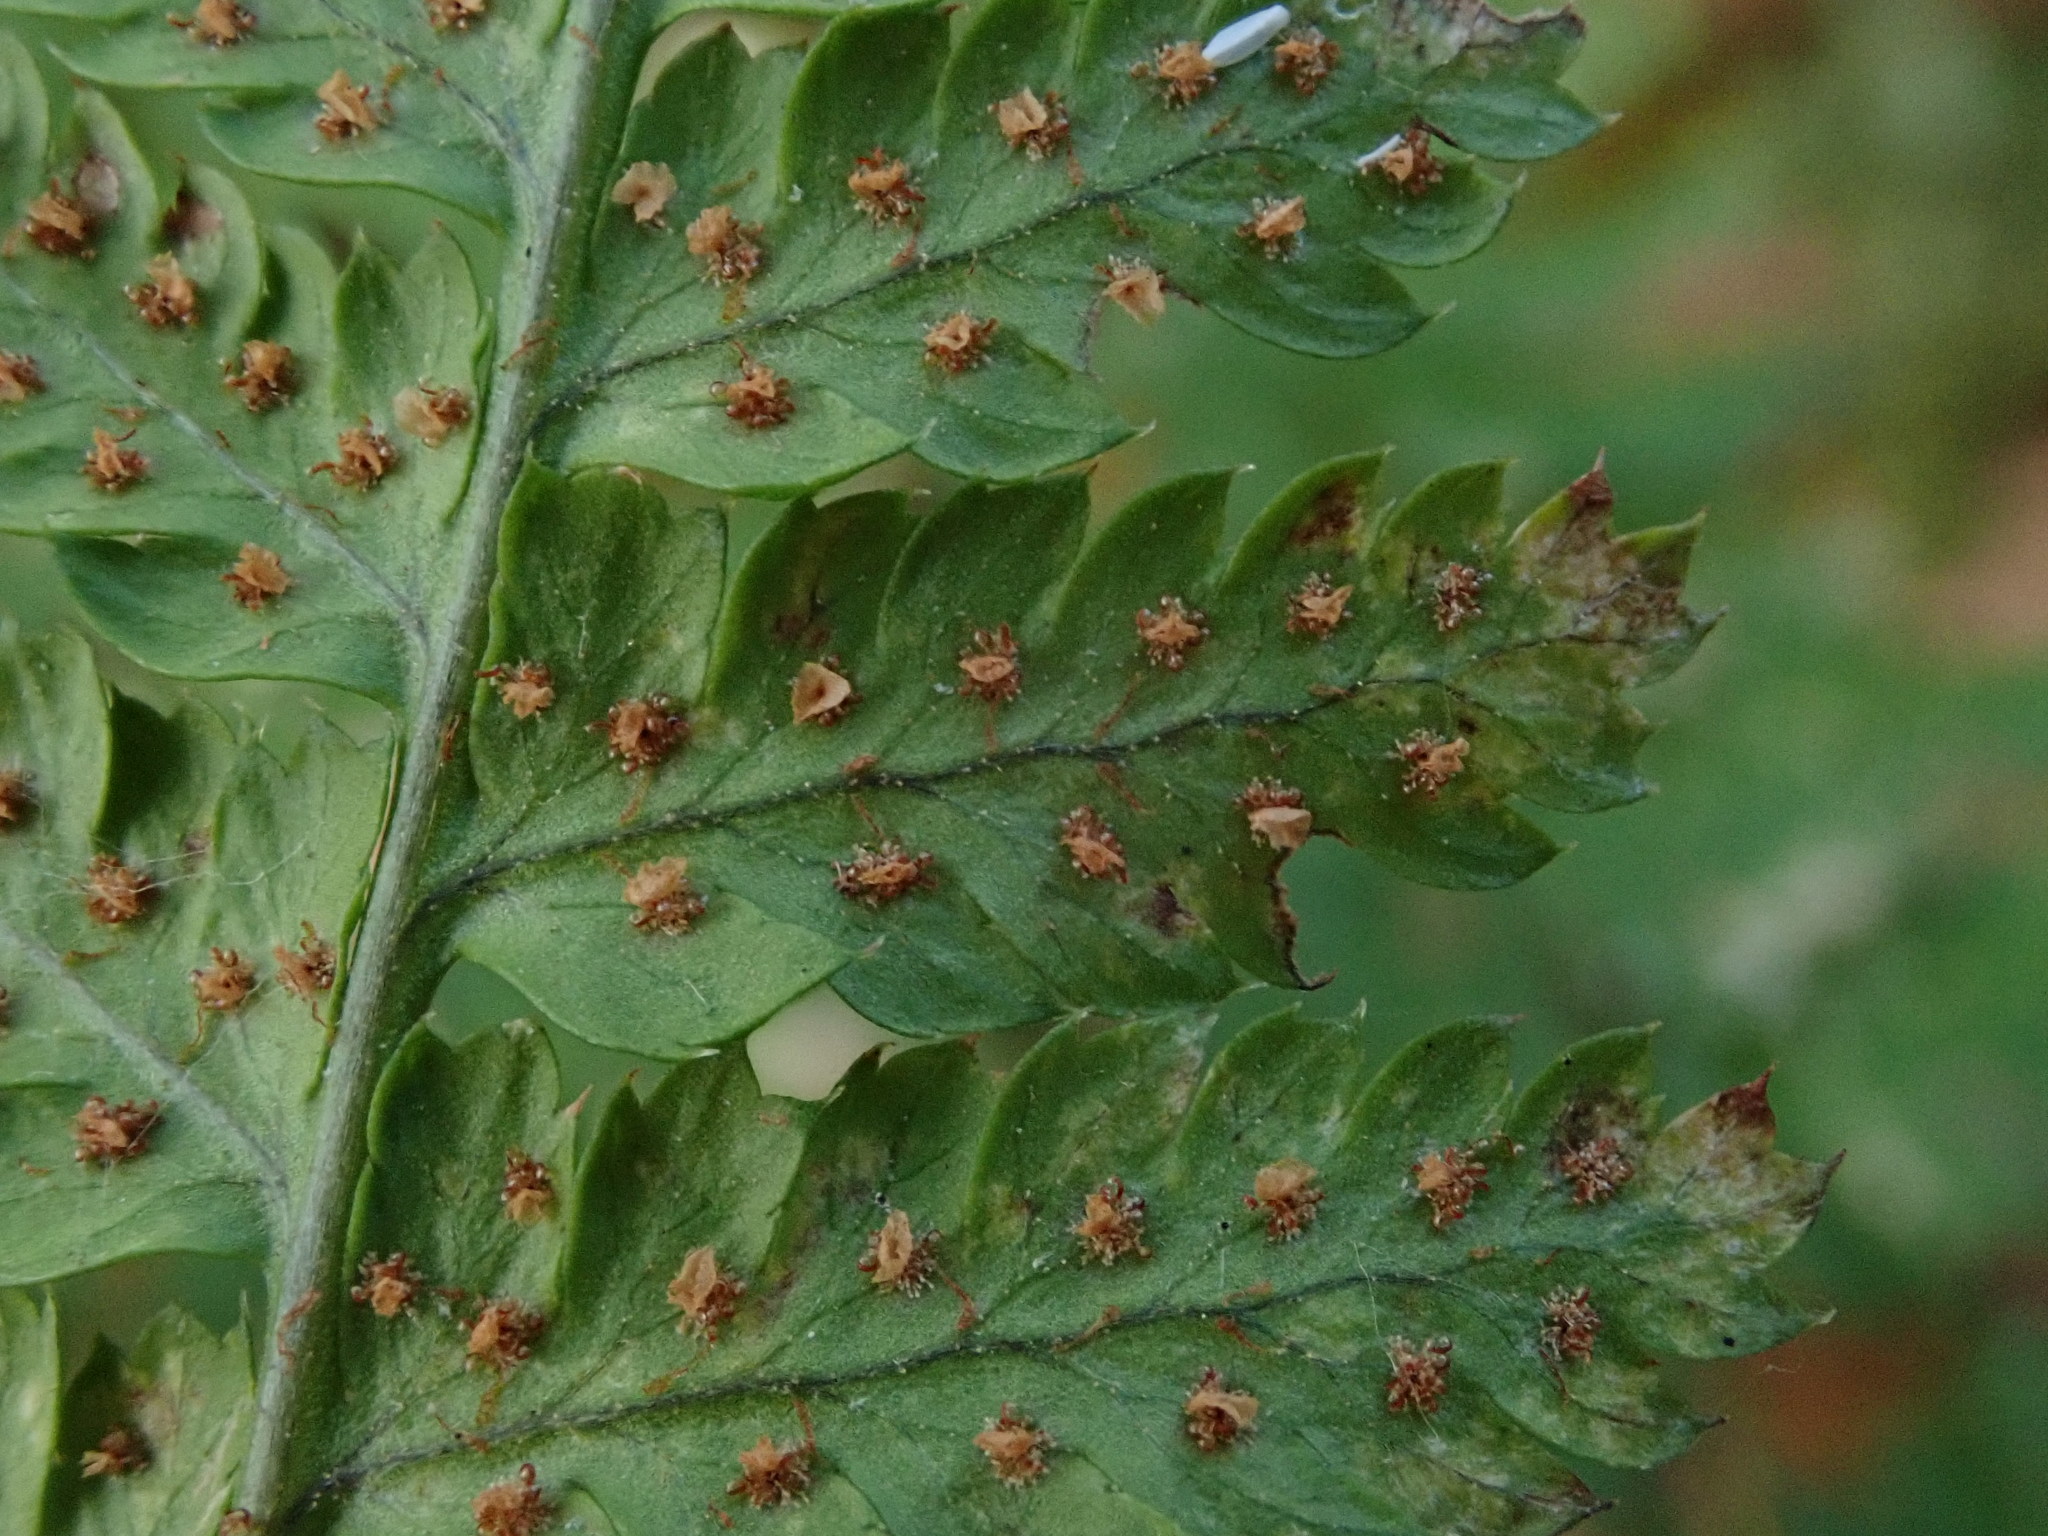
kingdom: Plantae
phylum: Tracheophyta
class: Polypodiopsida
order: Polypodiales
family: Dryopteridaceae
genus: Dryopteris
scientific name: Dryopteris dilatata
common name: Broad buckler-fern
